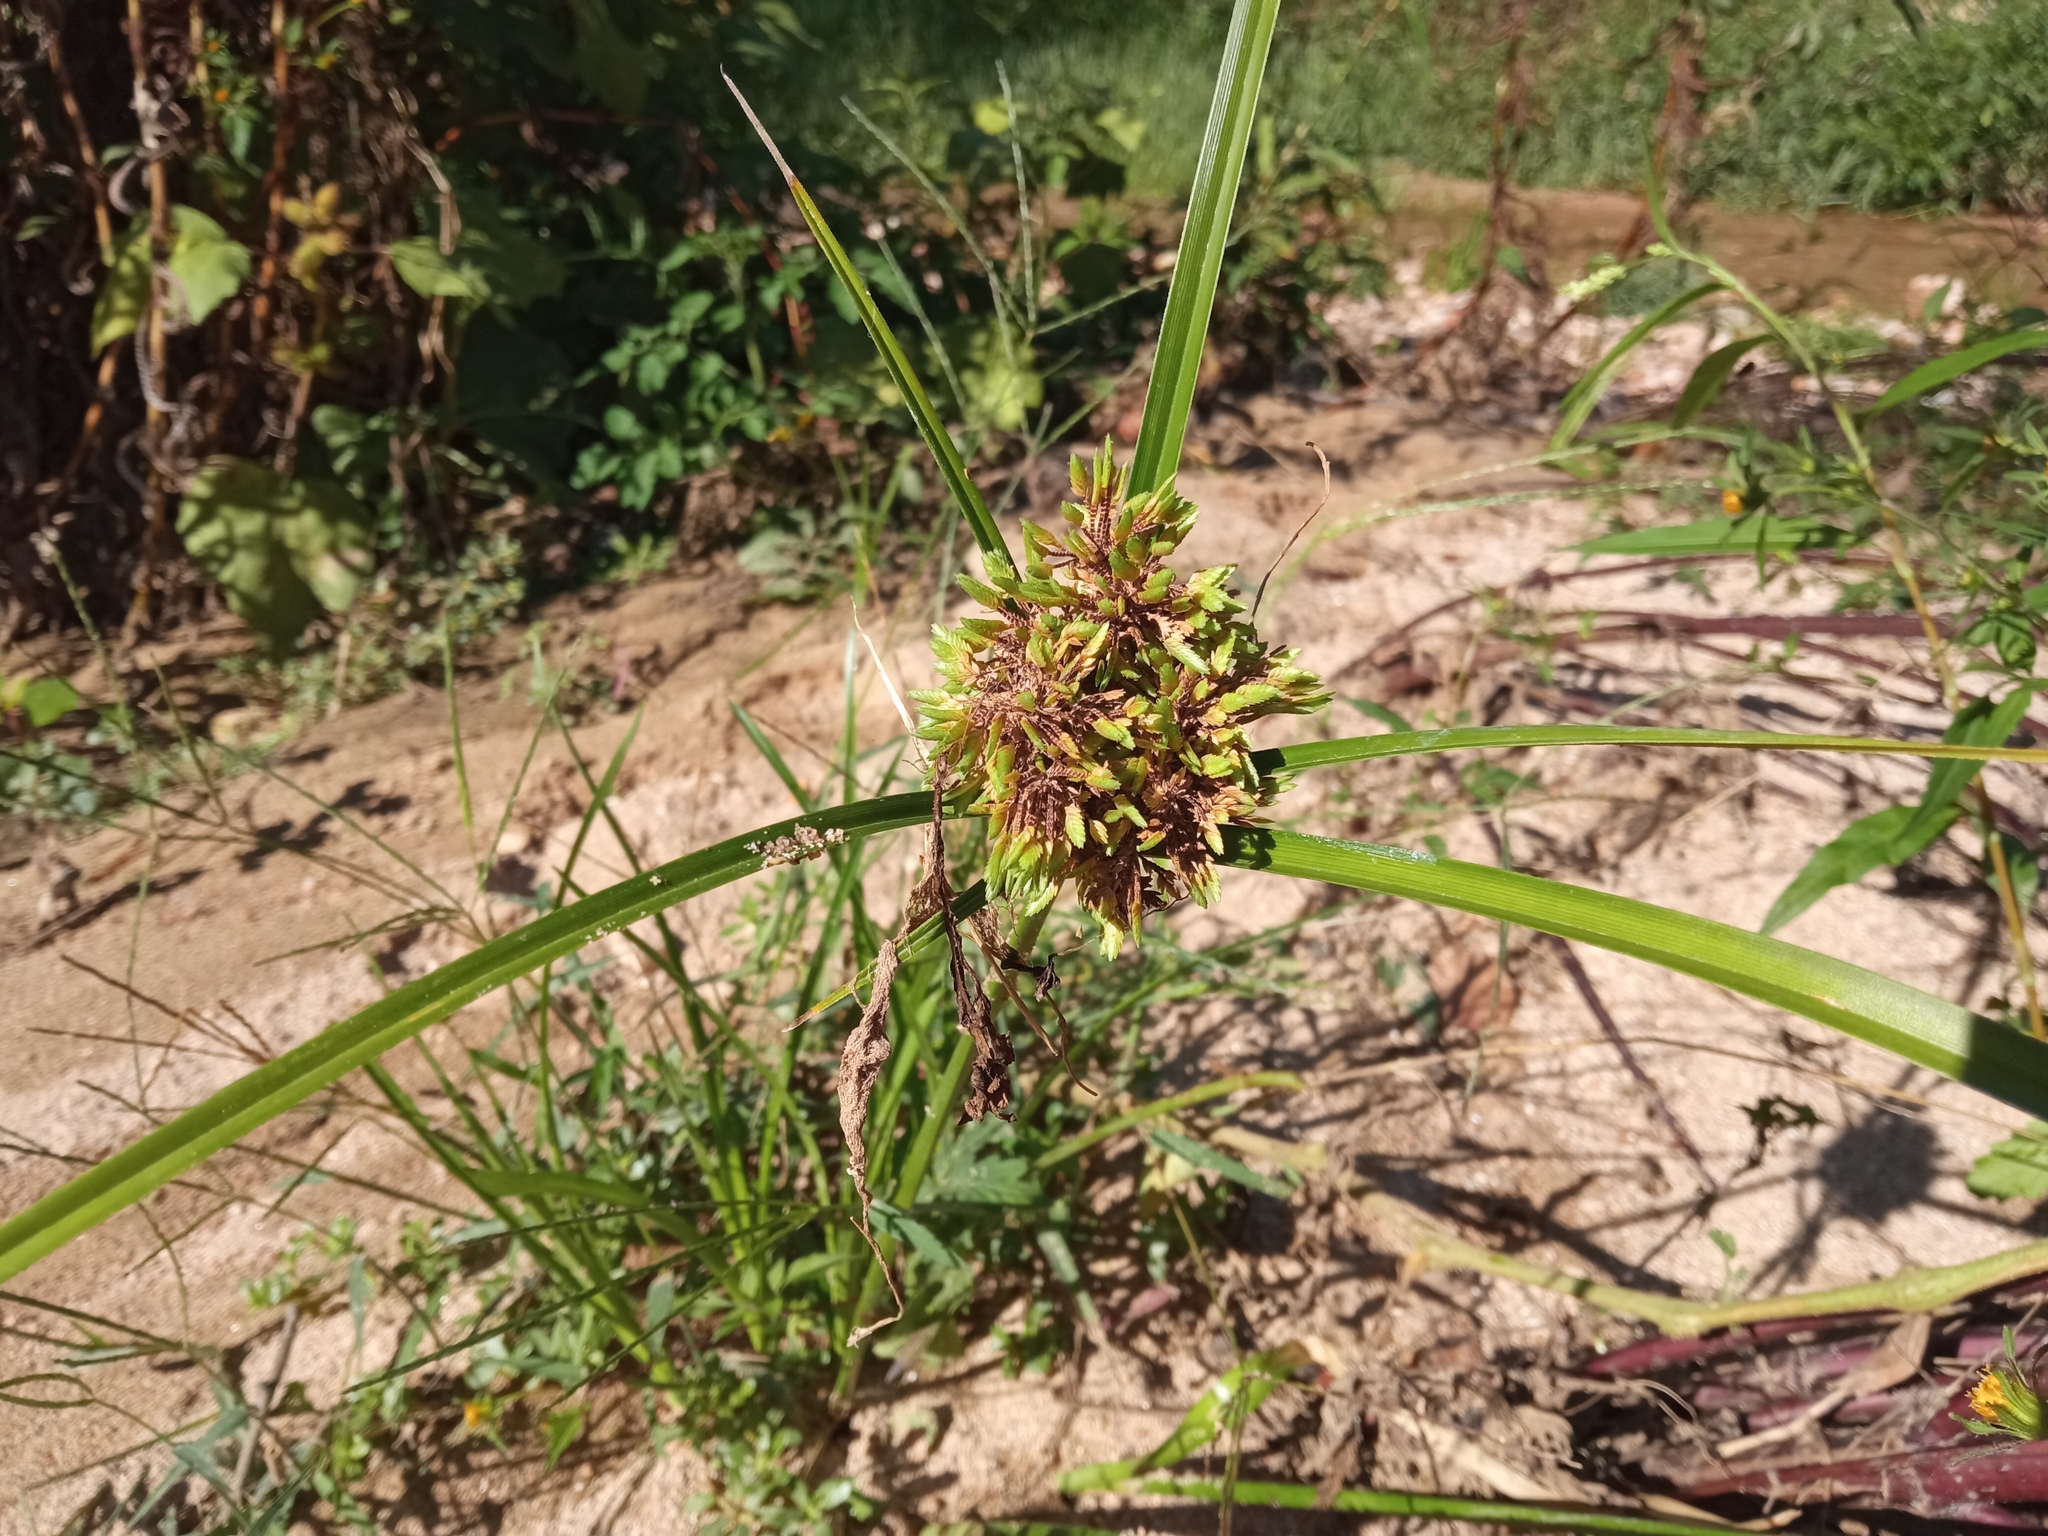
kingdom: Plantae
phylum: Tracheophyta
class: Liliopsida
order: Poales
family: Cyperaceae
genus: Cyperus
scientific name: Cyperus eragrostis
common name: Tall flatsedge
